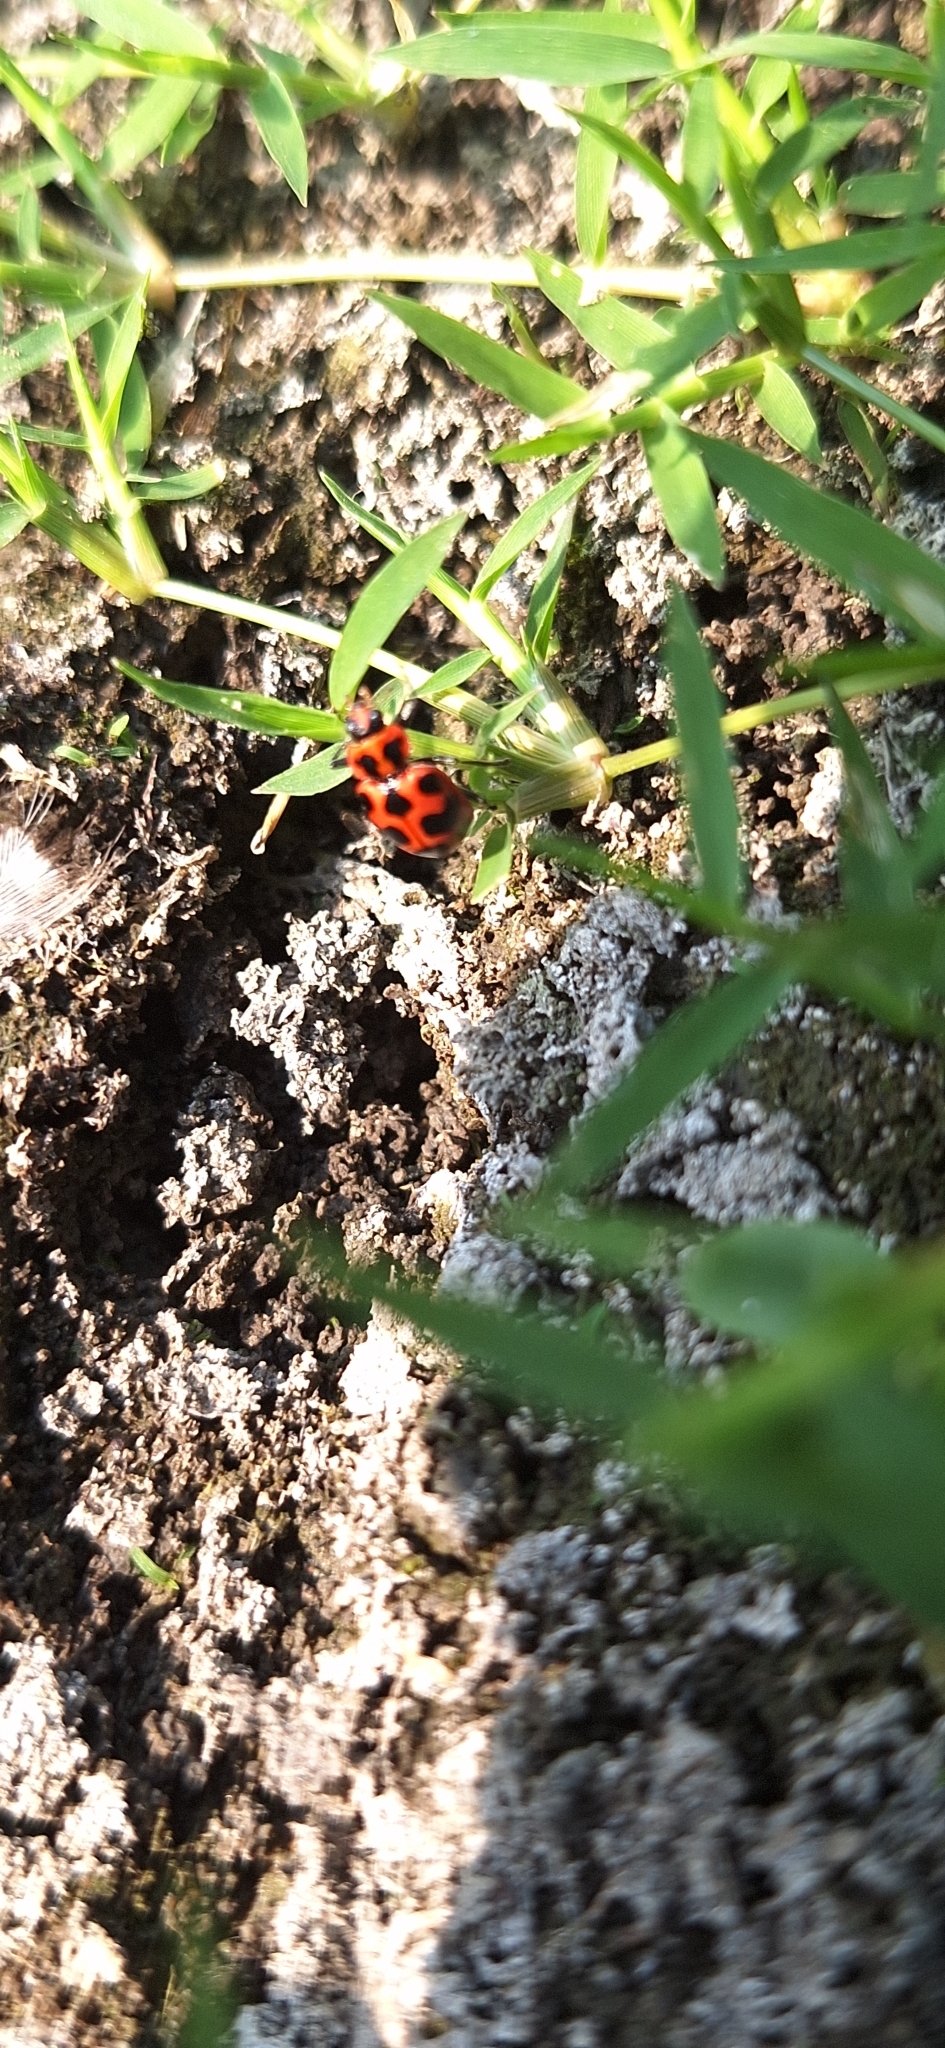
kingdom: Animalia
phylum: Arthropoda
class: Insecta
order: Coleoptera
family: Coccinellidae
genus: Coleomegilla
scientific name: Coleomegilla maculata
